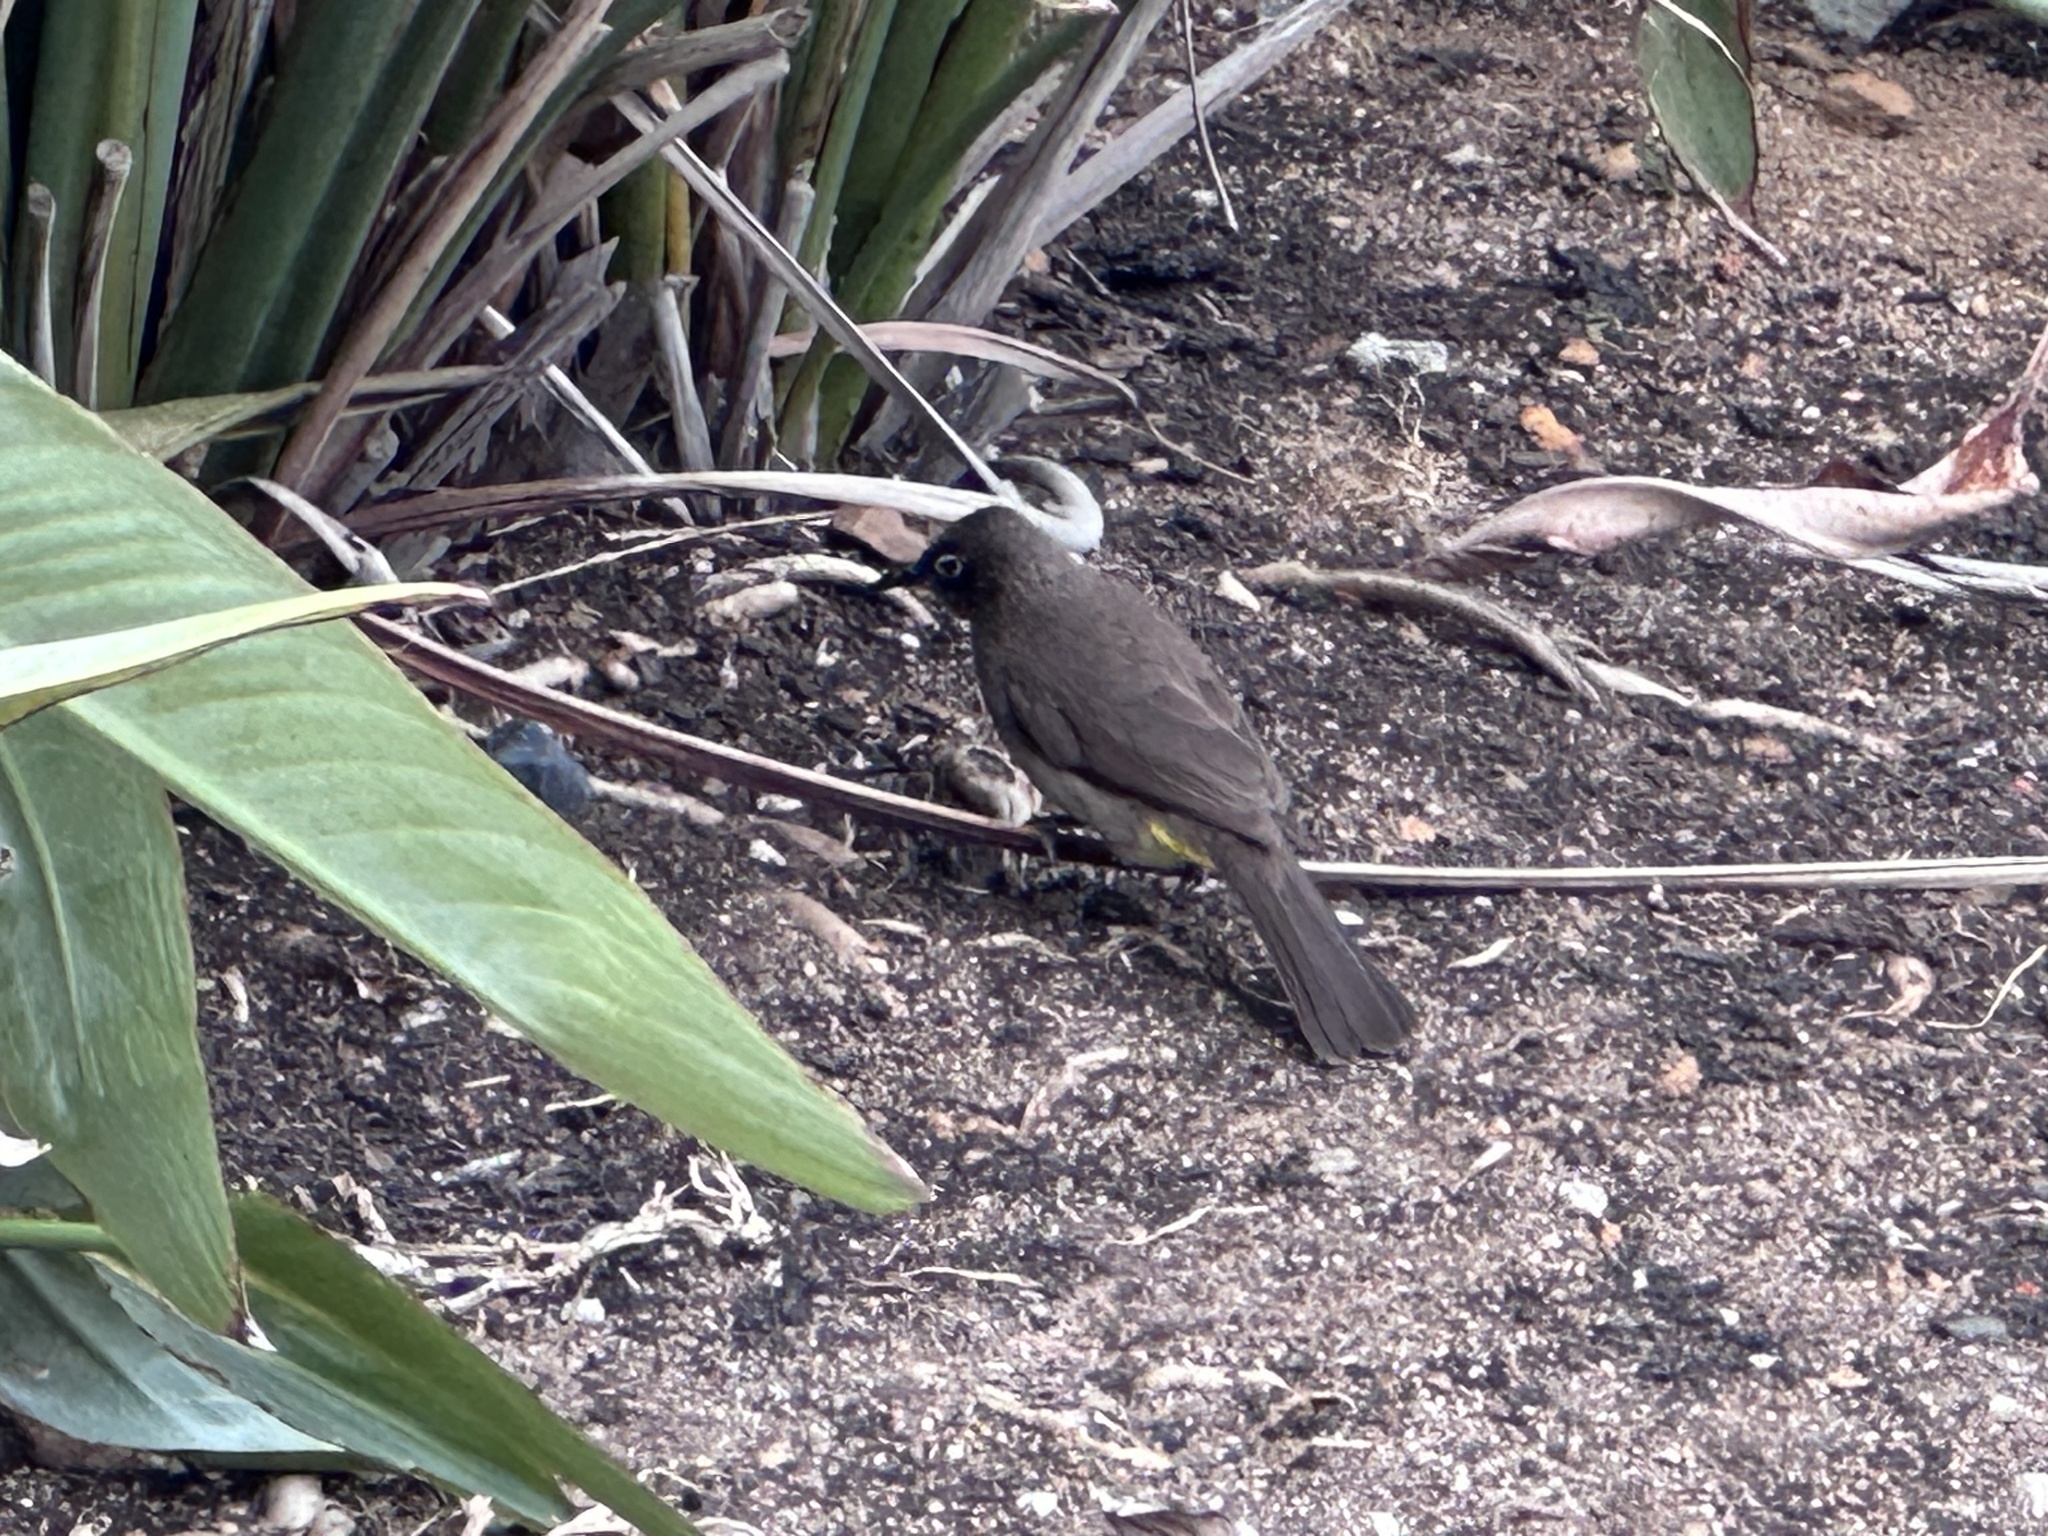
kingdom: Animalia
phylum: Chordata
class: Aves
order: Passeriformes
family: Pycnonotidae
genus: Pycnonotus
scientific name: Pycnonotus capensis
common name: Cape bulbul
